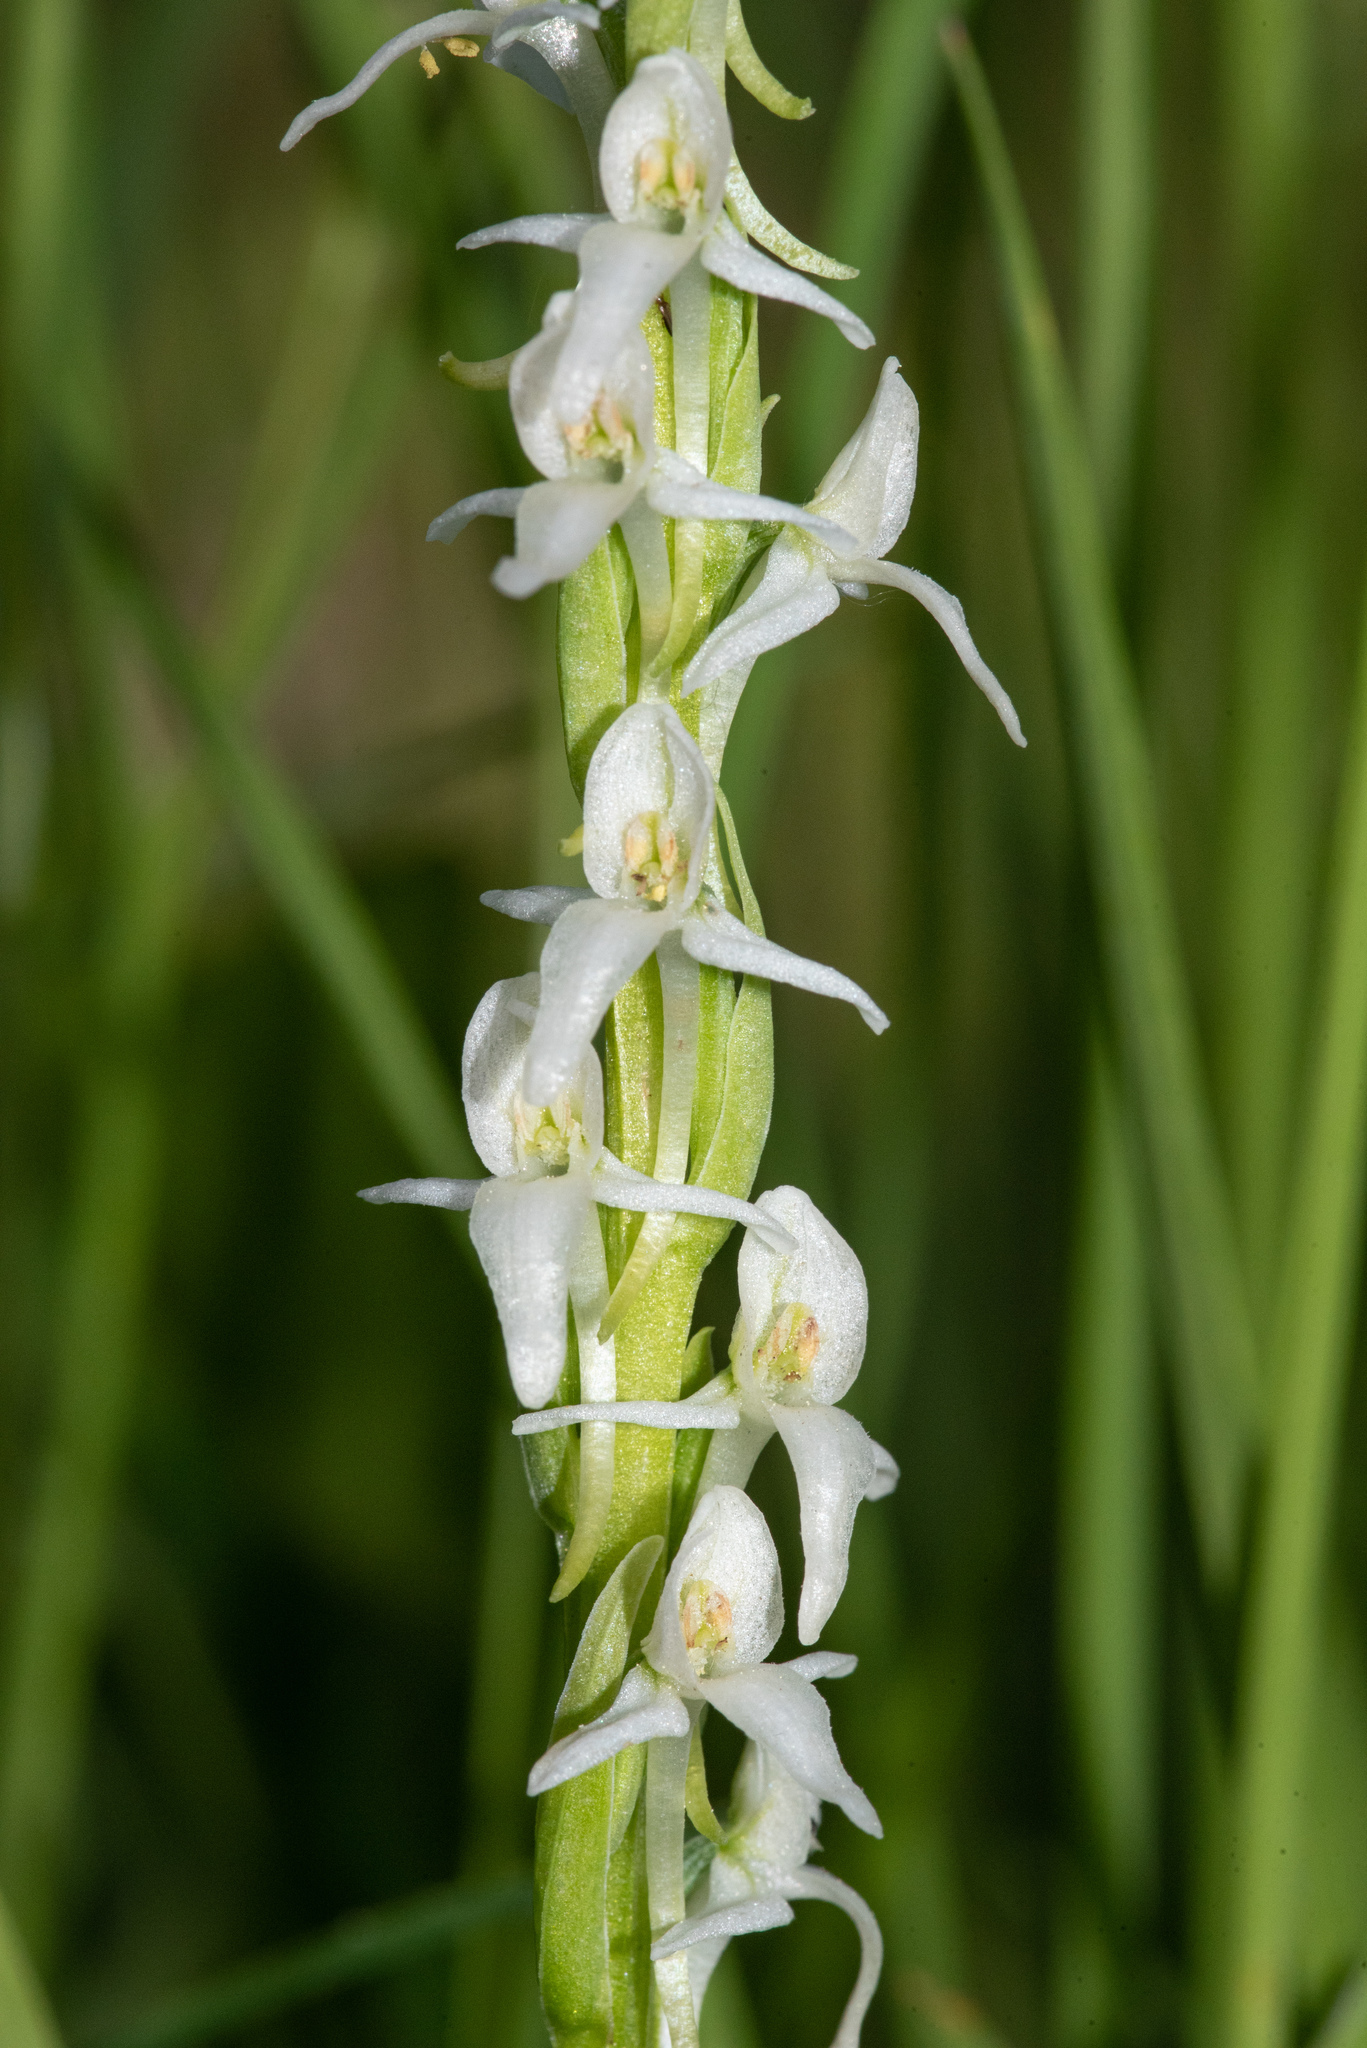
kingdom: Plantae
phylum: Tracheophyta
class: Liliopsida
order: Asparagales
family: Orchidaceae
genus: Platanthera
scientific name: Platanthera dilatata
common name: Bog candles
